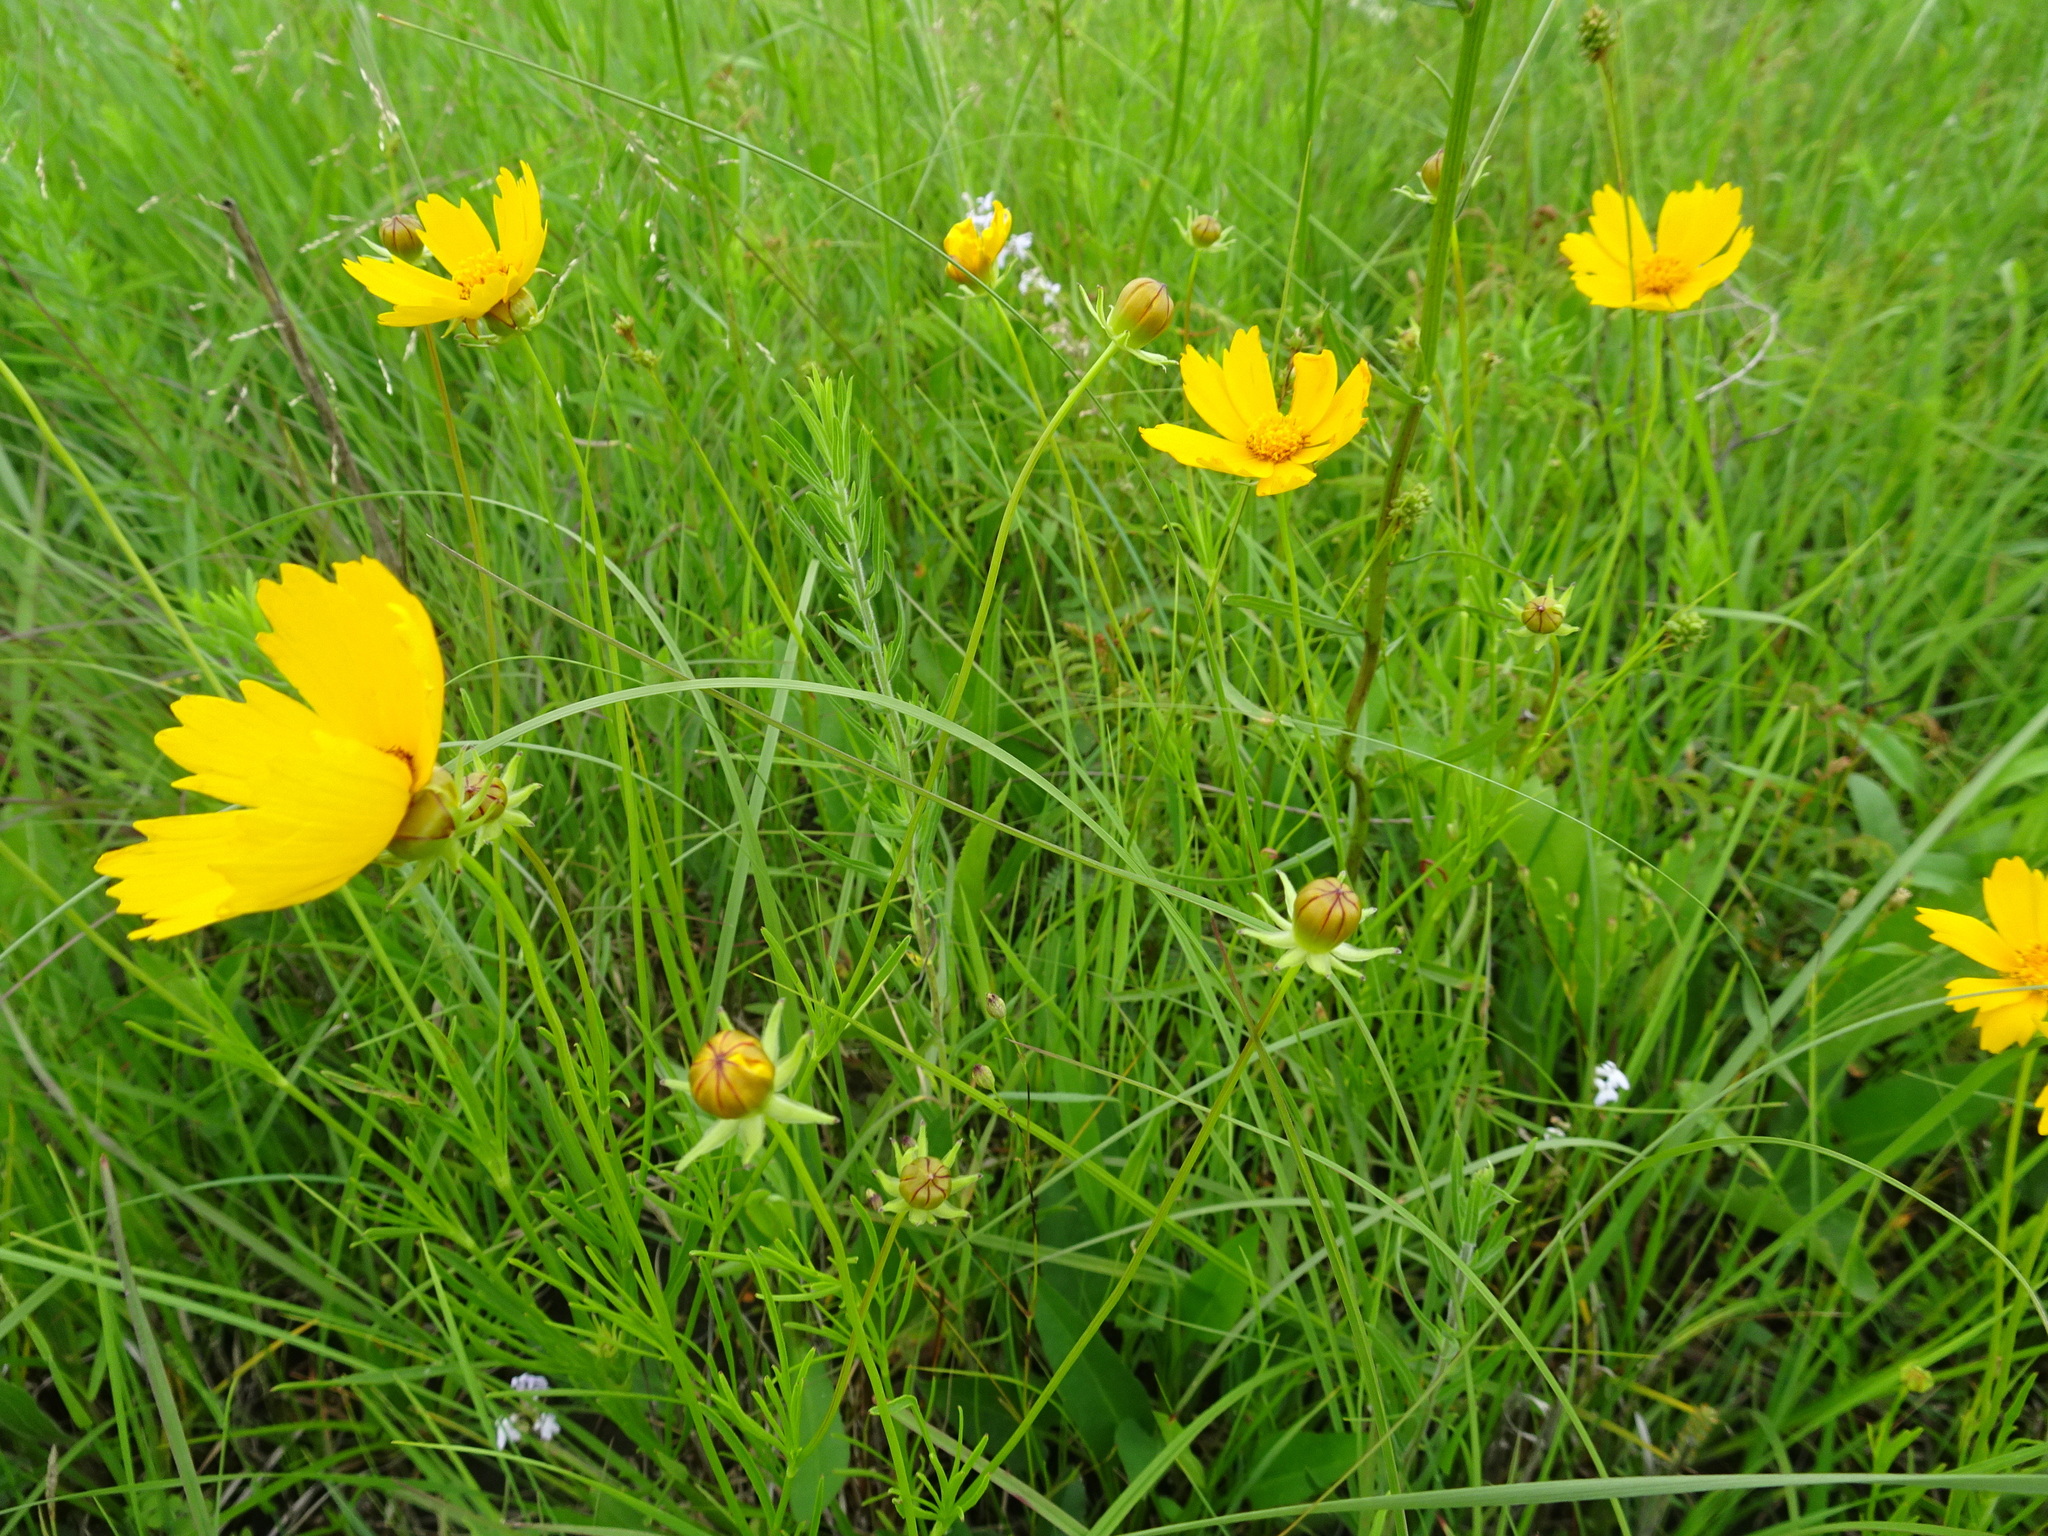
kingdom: Plantae
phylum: Tracheophyta
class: Magnoliopsida
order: Asterales
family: Asteraceae
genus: Coreopsis
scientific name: Coreopsis grandiflora
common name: Large-flowered tickseed
